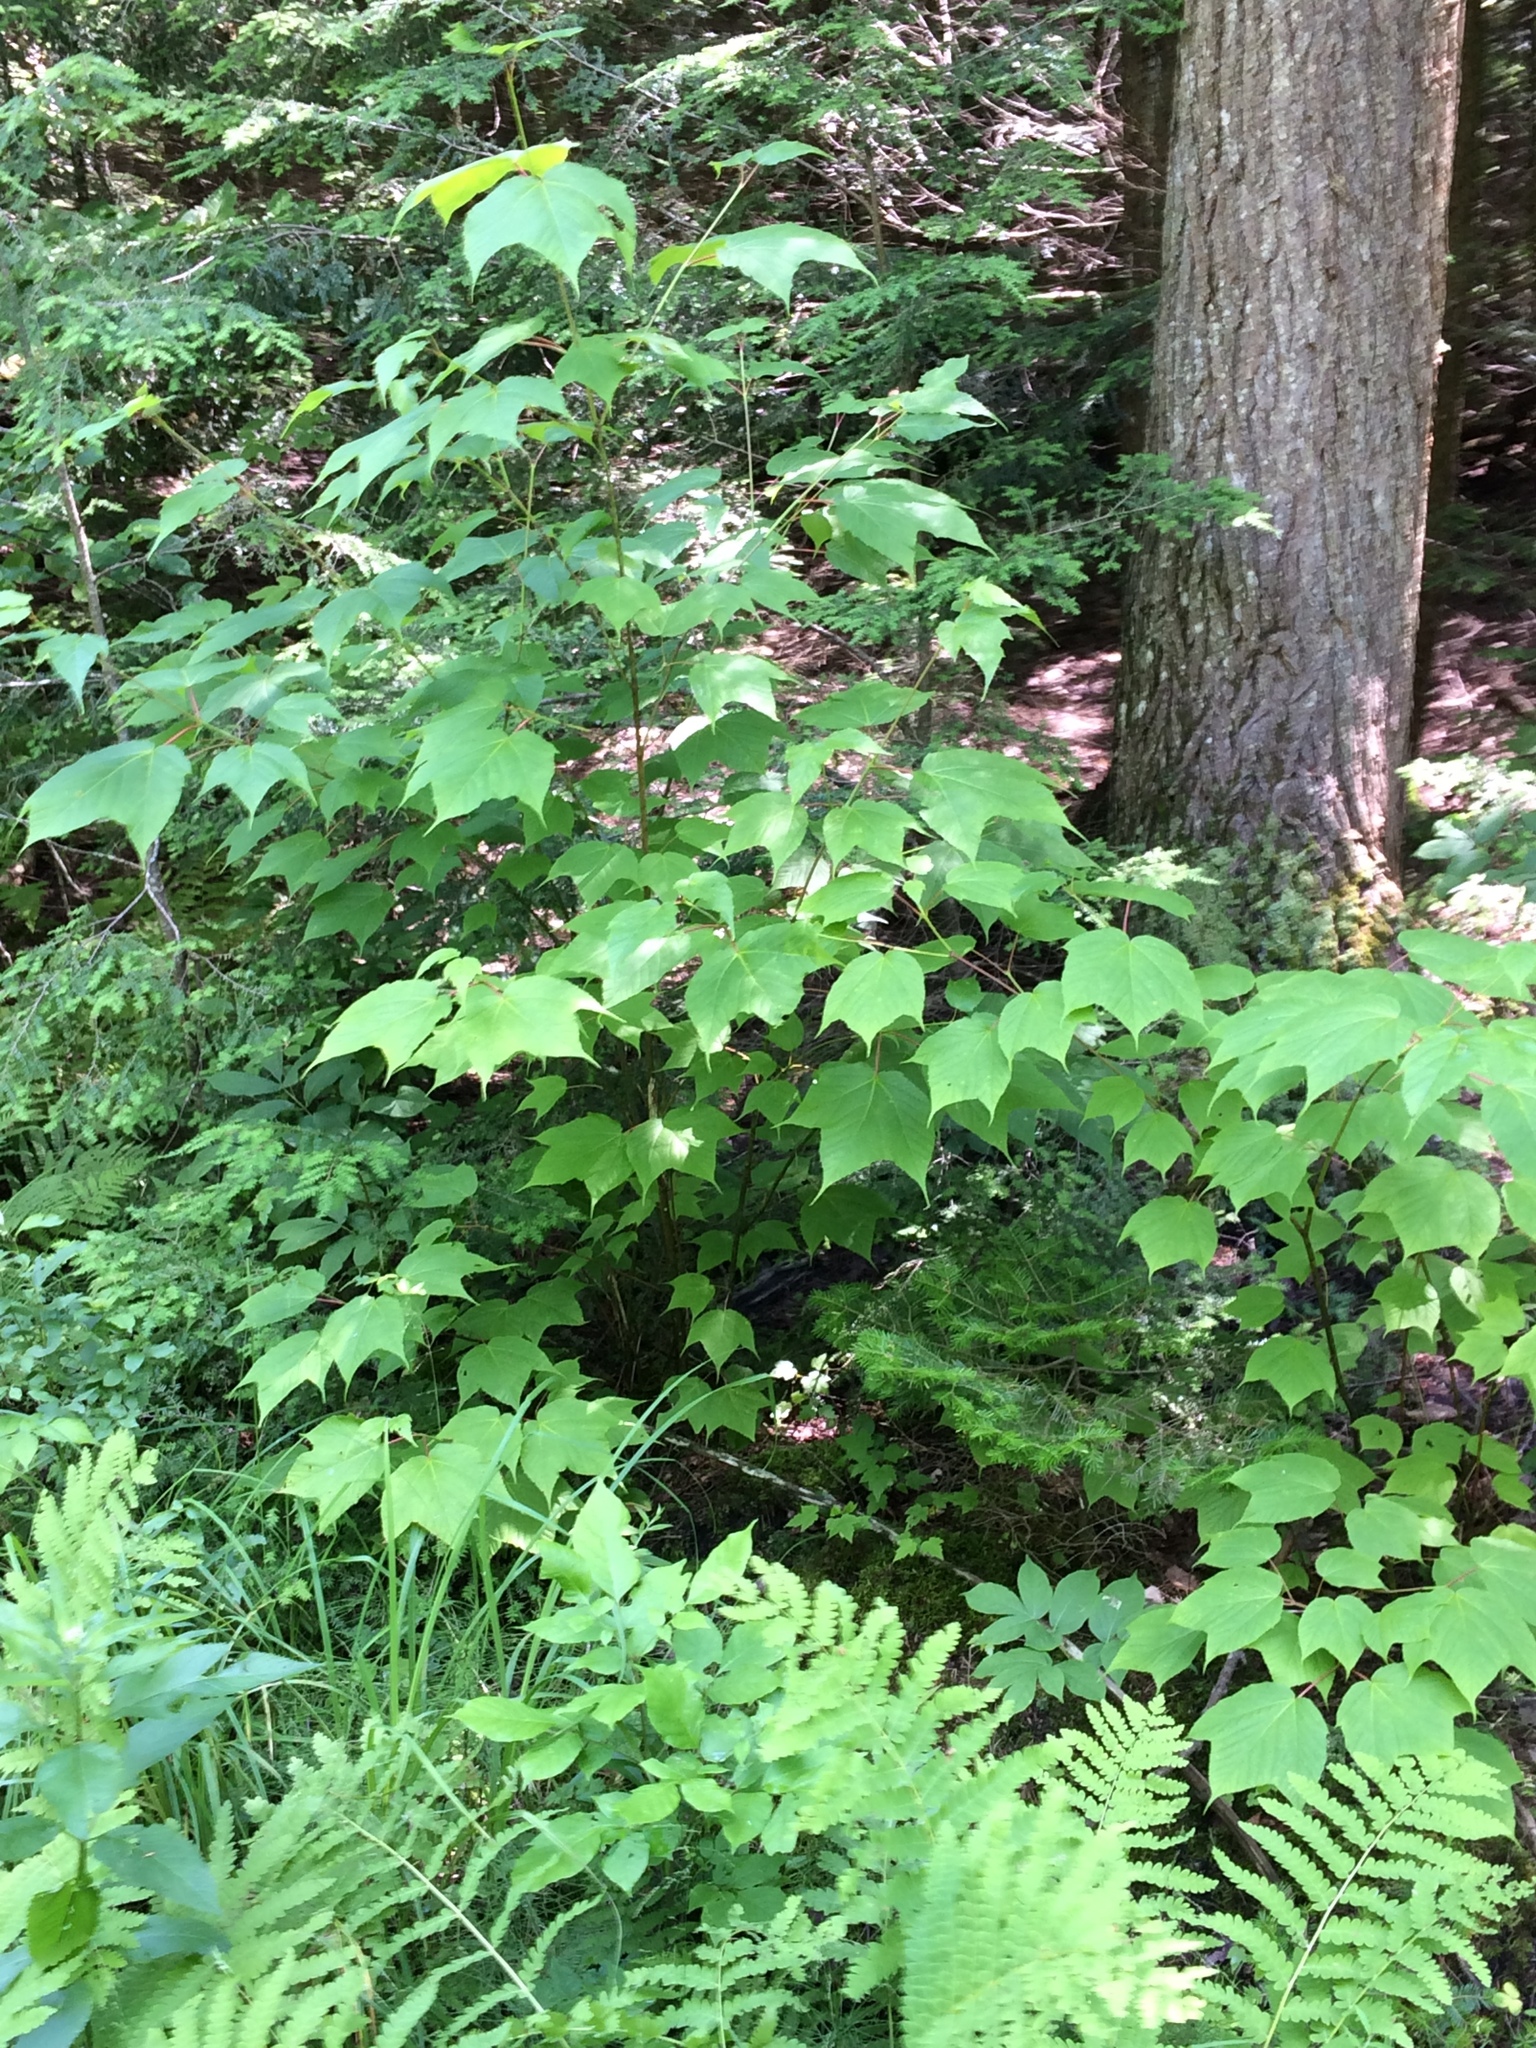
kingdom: Plantae
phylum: Tracheophyta
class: Magnoliopsida
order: Sapindales
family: Sapindaceae
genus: Acer
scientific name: Acer pensylvanicum
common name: Moosewood
